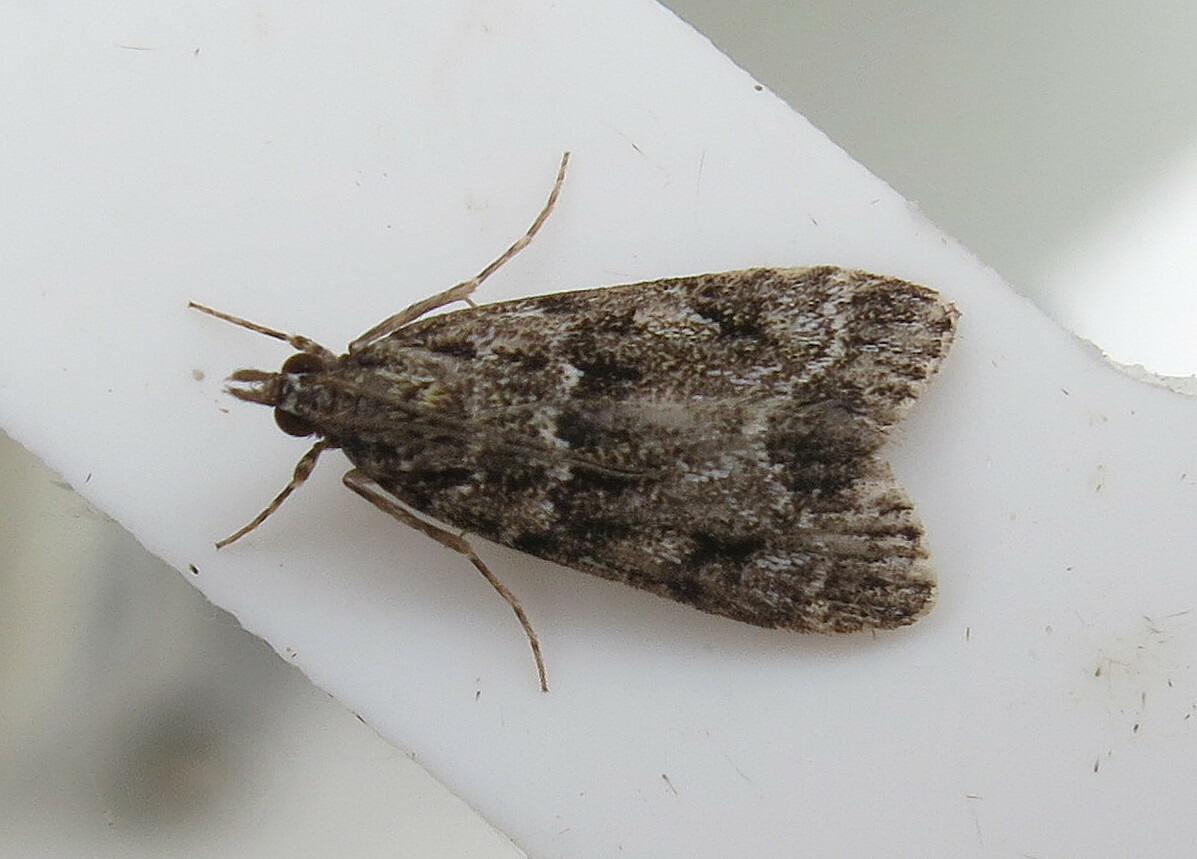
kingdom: Animalia
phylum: Arthropoda
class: Insecta
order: Lepidoptera
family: Crambidae
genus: Eudonia
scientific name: Eudonia mercurella
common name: Small grey
